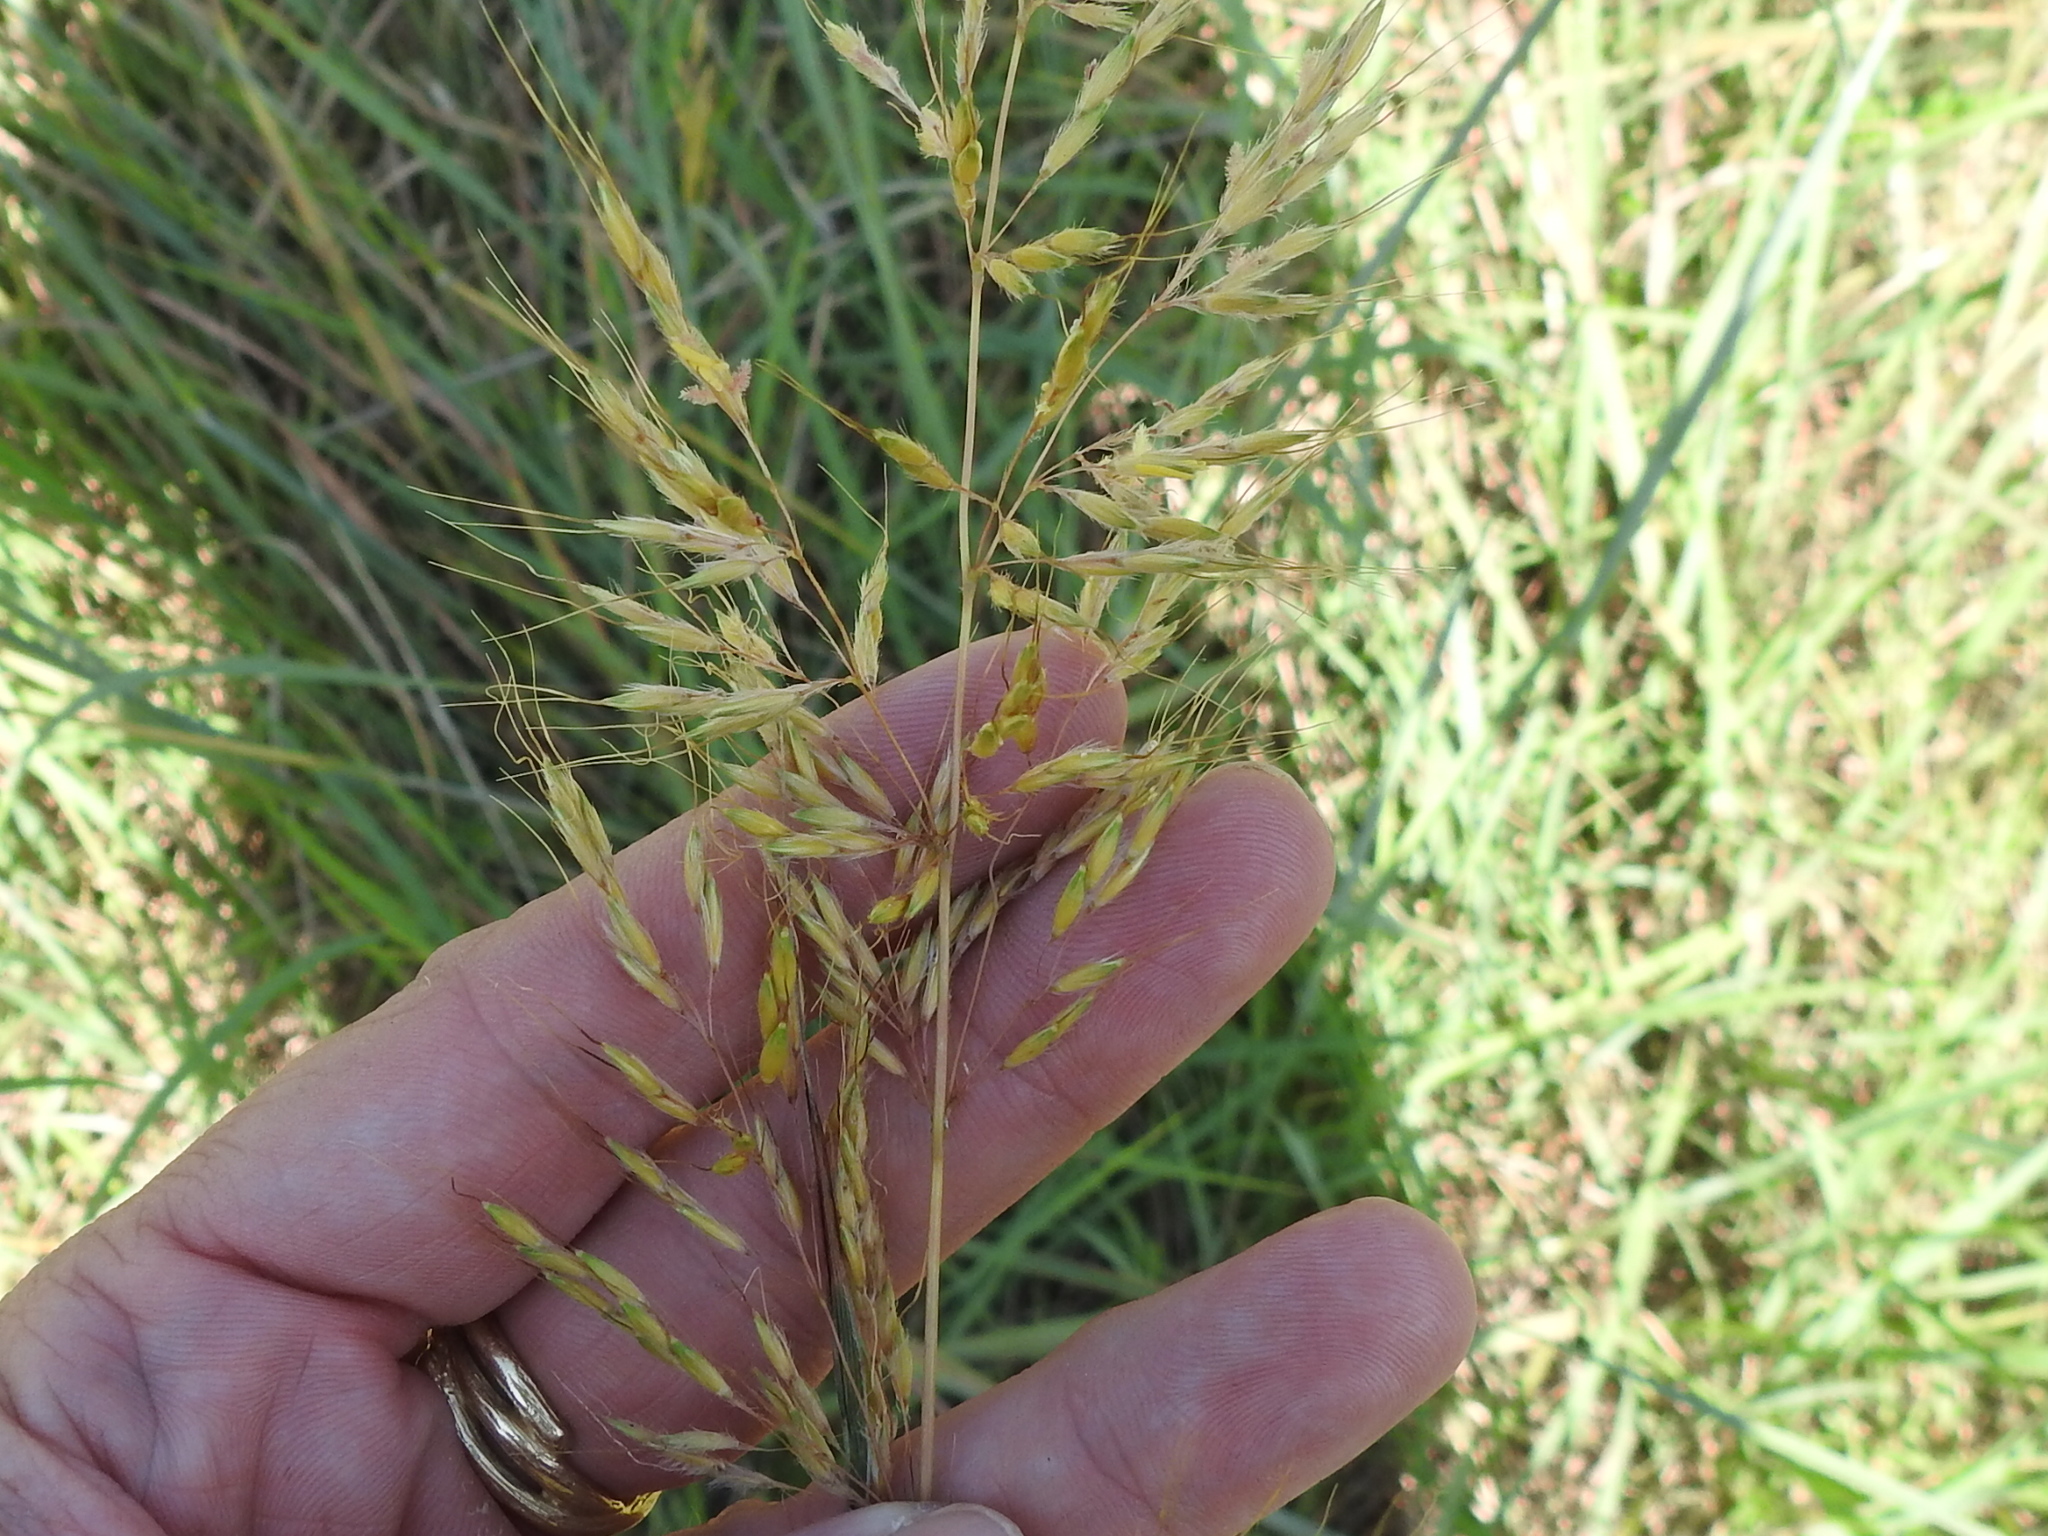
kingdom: Plantae
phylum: Tracheophyta
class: Liliopsida
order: Poales
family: Poaceae
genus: Sorghastrum
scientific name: Sorghastrum nutans
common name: Indian grass
